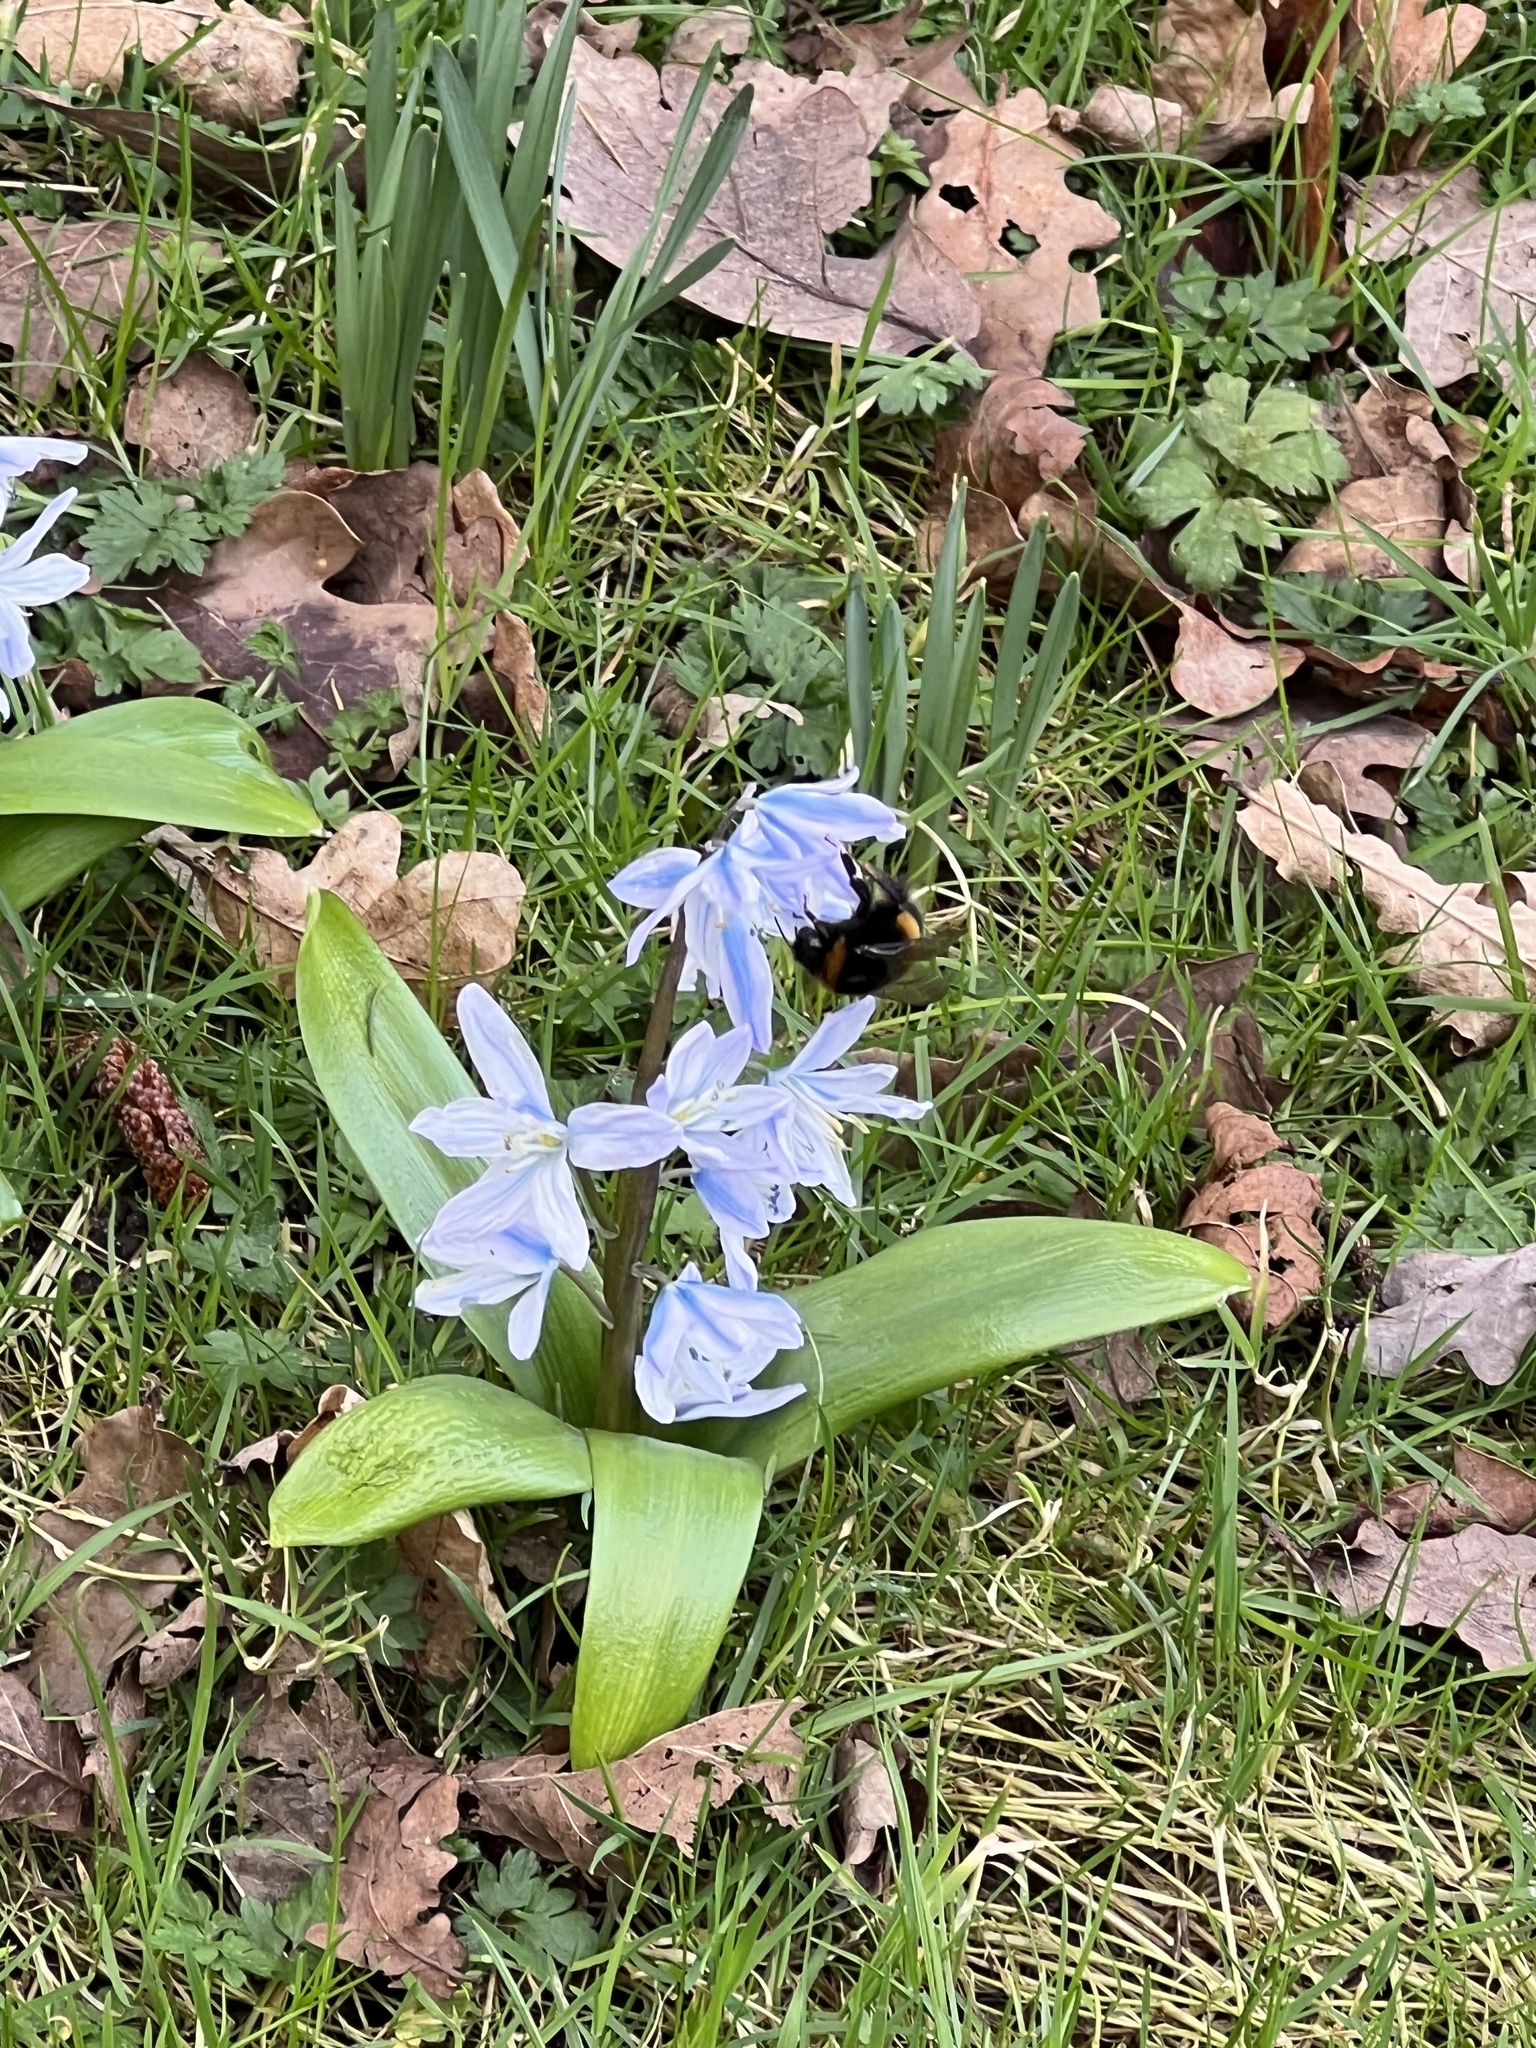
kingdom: Animalia
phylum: Arthropoda
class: Insecta
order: Hymenoptera
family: Apidae
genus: Bombus
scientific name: Bombus terrestris
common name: Buff-tailed bumblebee
